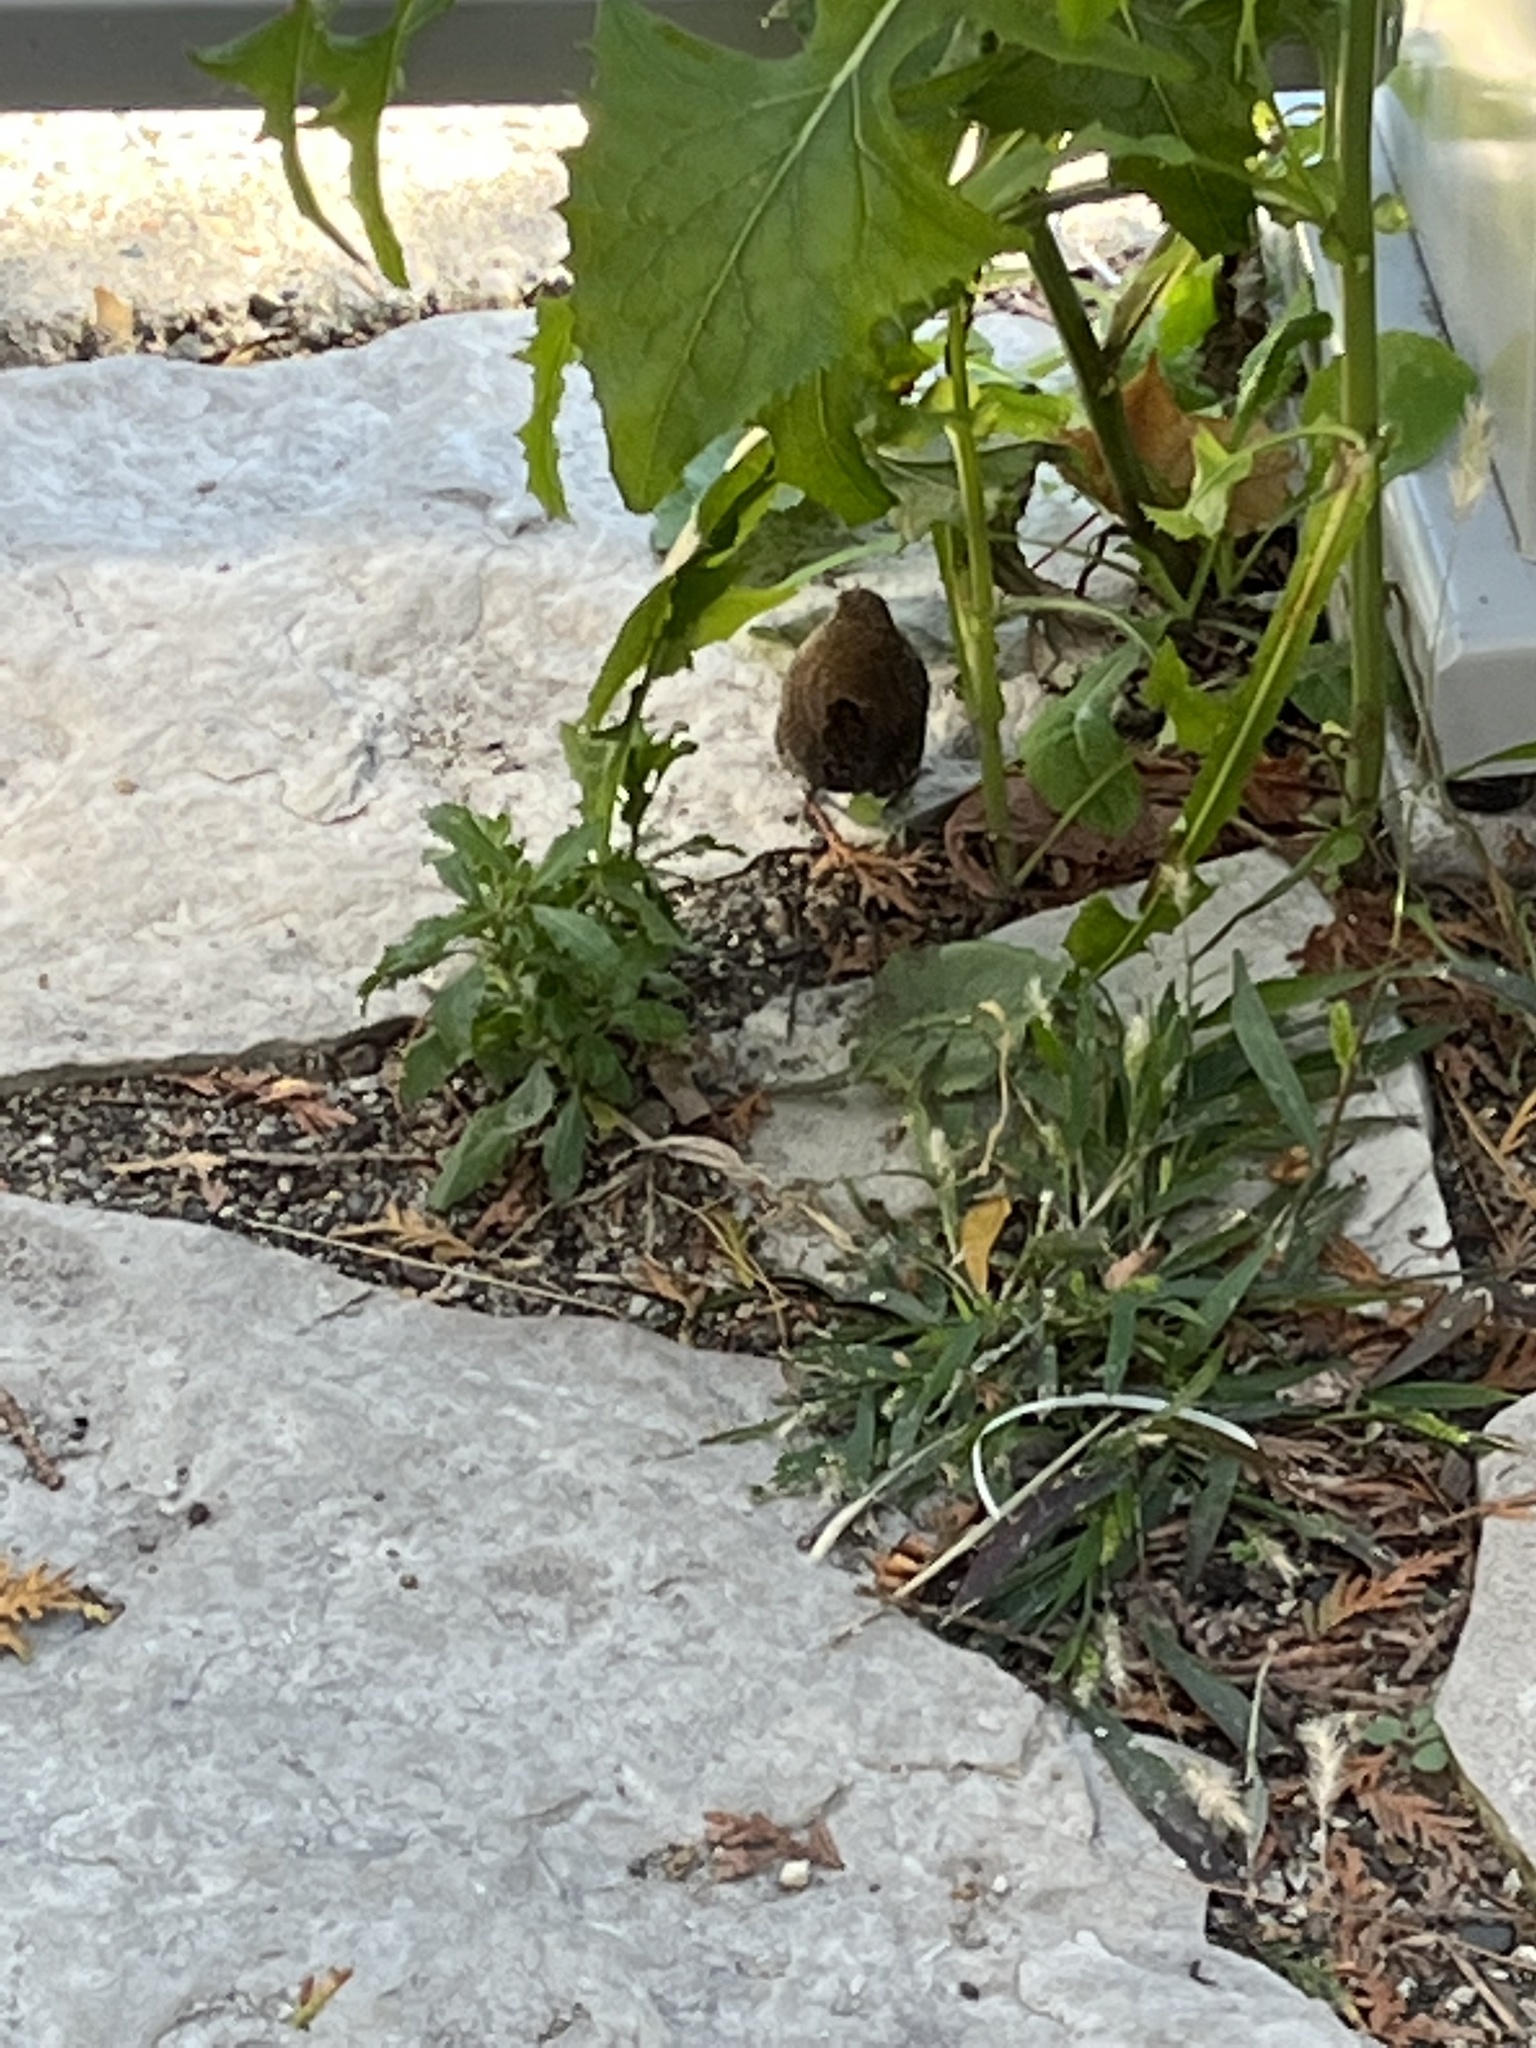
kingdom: Animalia
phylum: Chordata
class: Aves
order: Passeriformes
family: Troglodytidae
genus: Troglodytes
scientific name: Troglodytes hiemalis
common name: Winter wren
